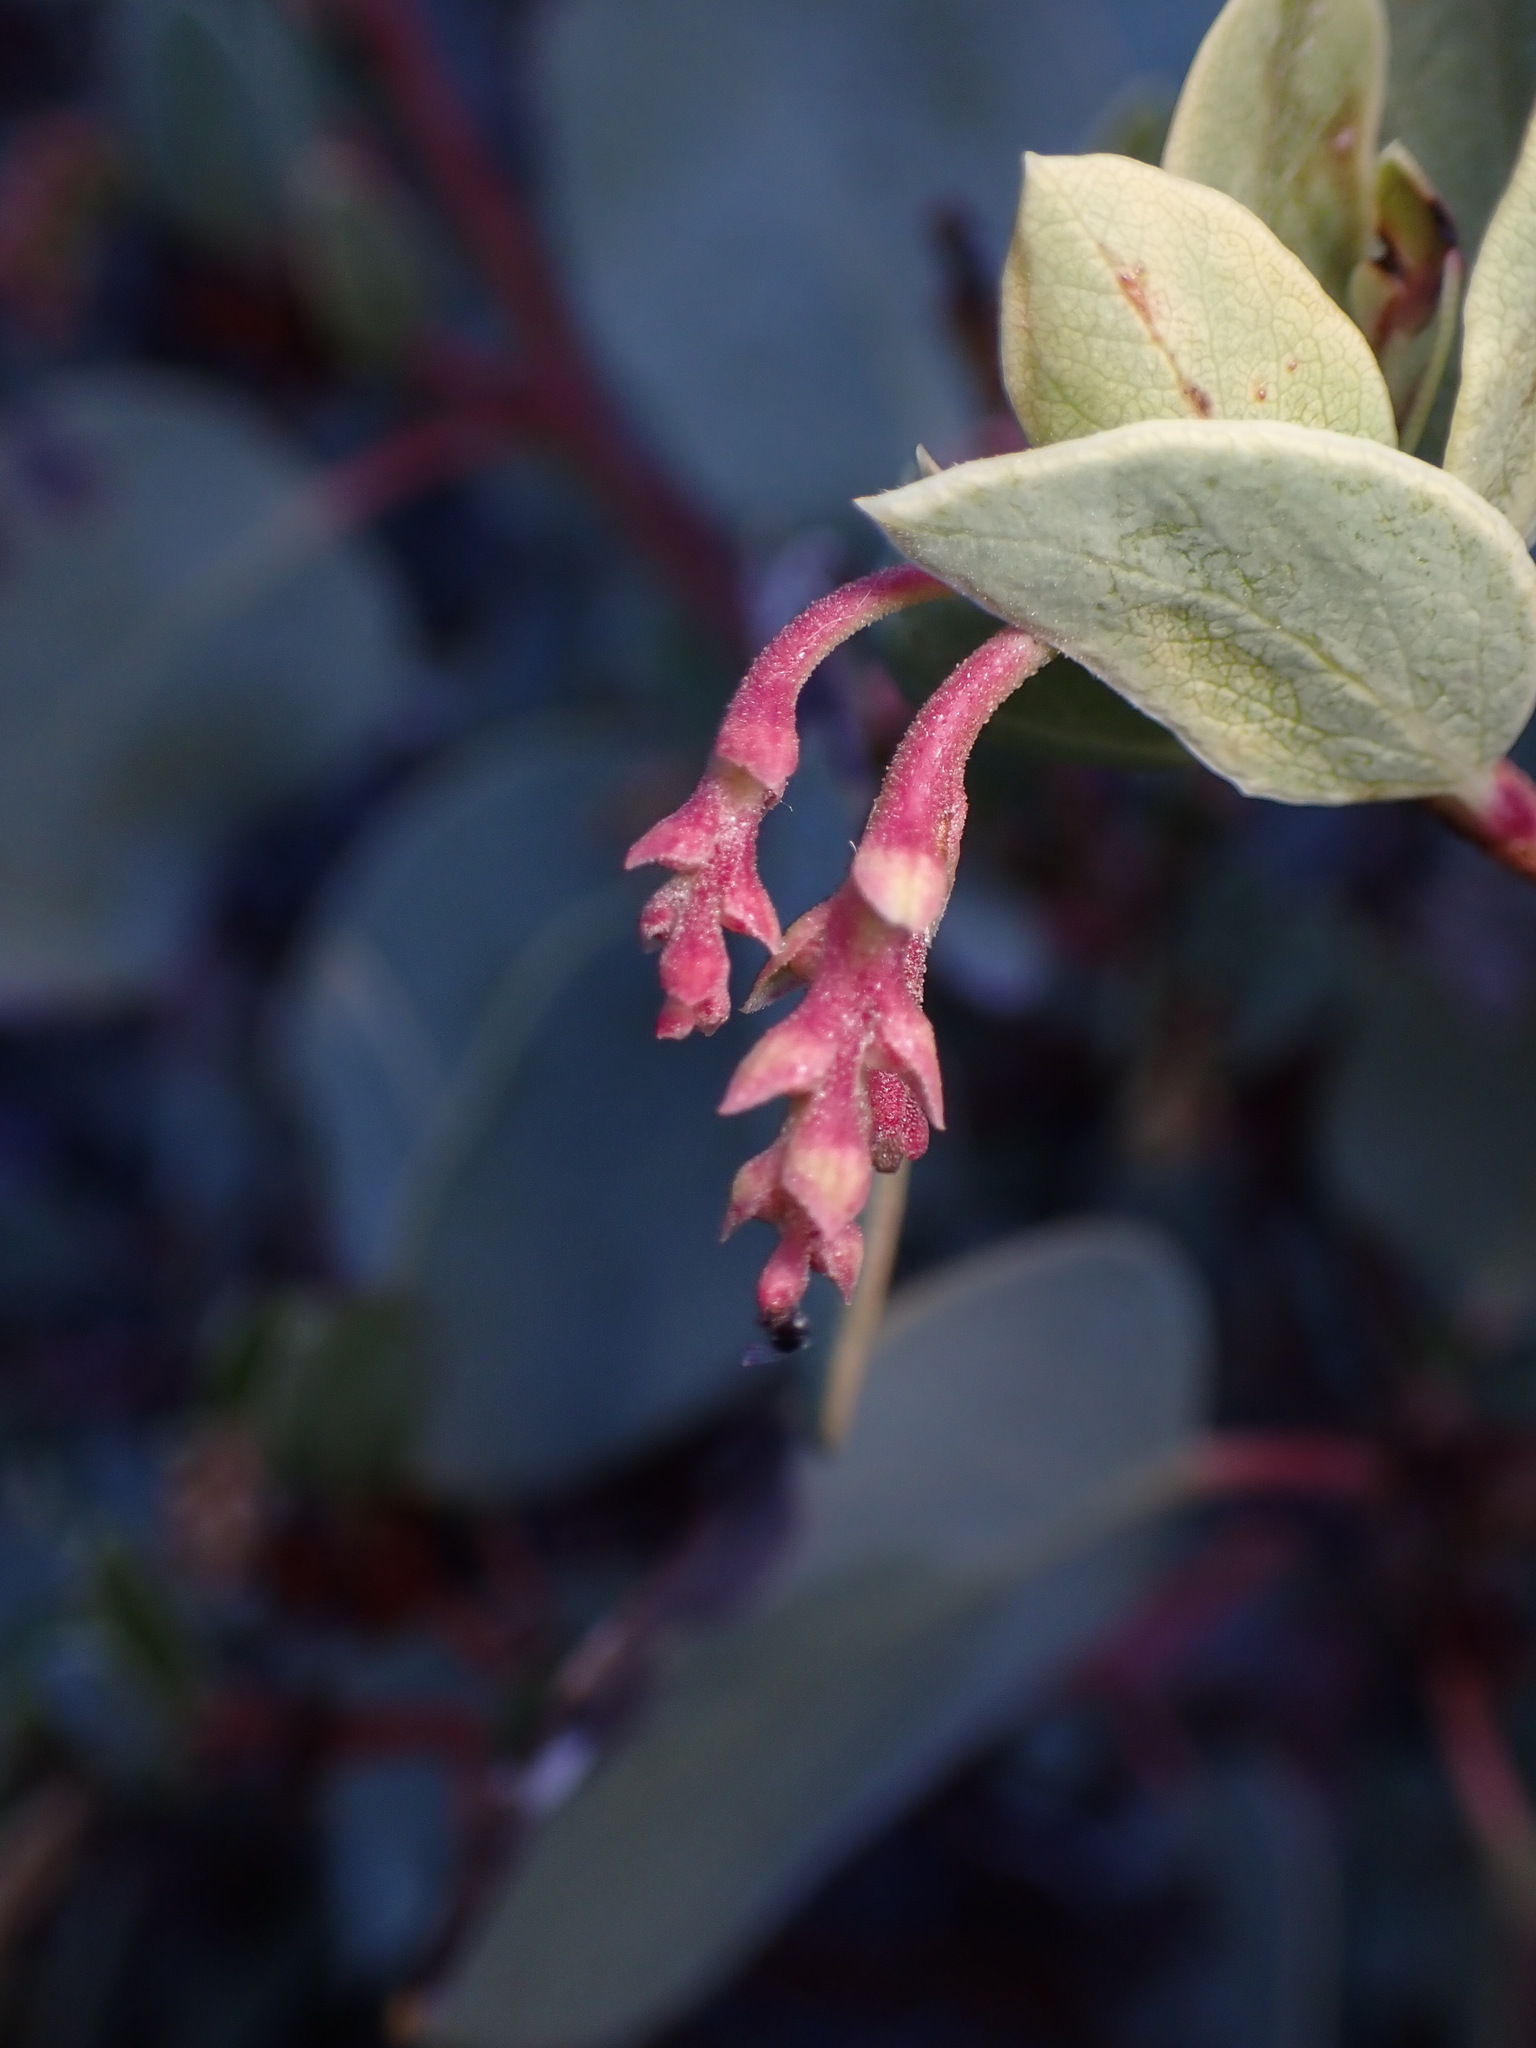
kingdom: Plantae
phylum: Tracheophyta
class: Magnoliopsida
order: Ericales
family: Ericaceae
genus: Arctostaphylos
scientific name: Arctostaphylos glauca
